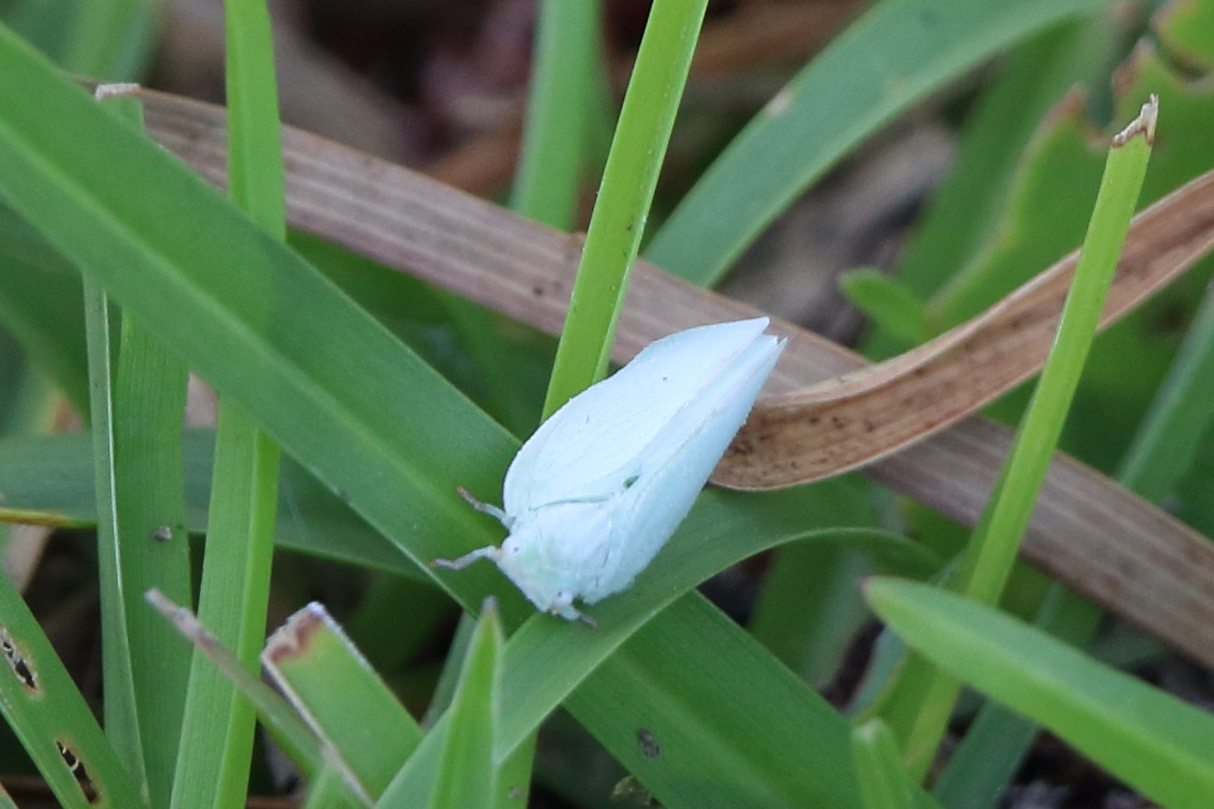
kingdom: Animalia
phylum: Arthropoda
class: Insecta
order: Hemiptera
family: Flatidae
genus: Flatormenis
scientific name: Flatormenis proxima
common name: Northern flatid planthopper
